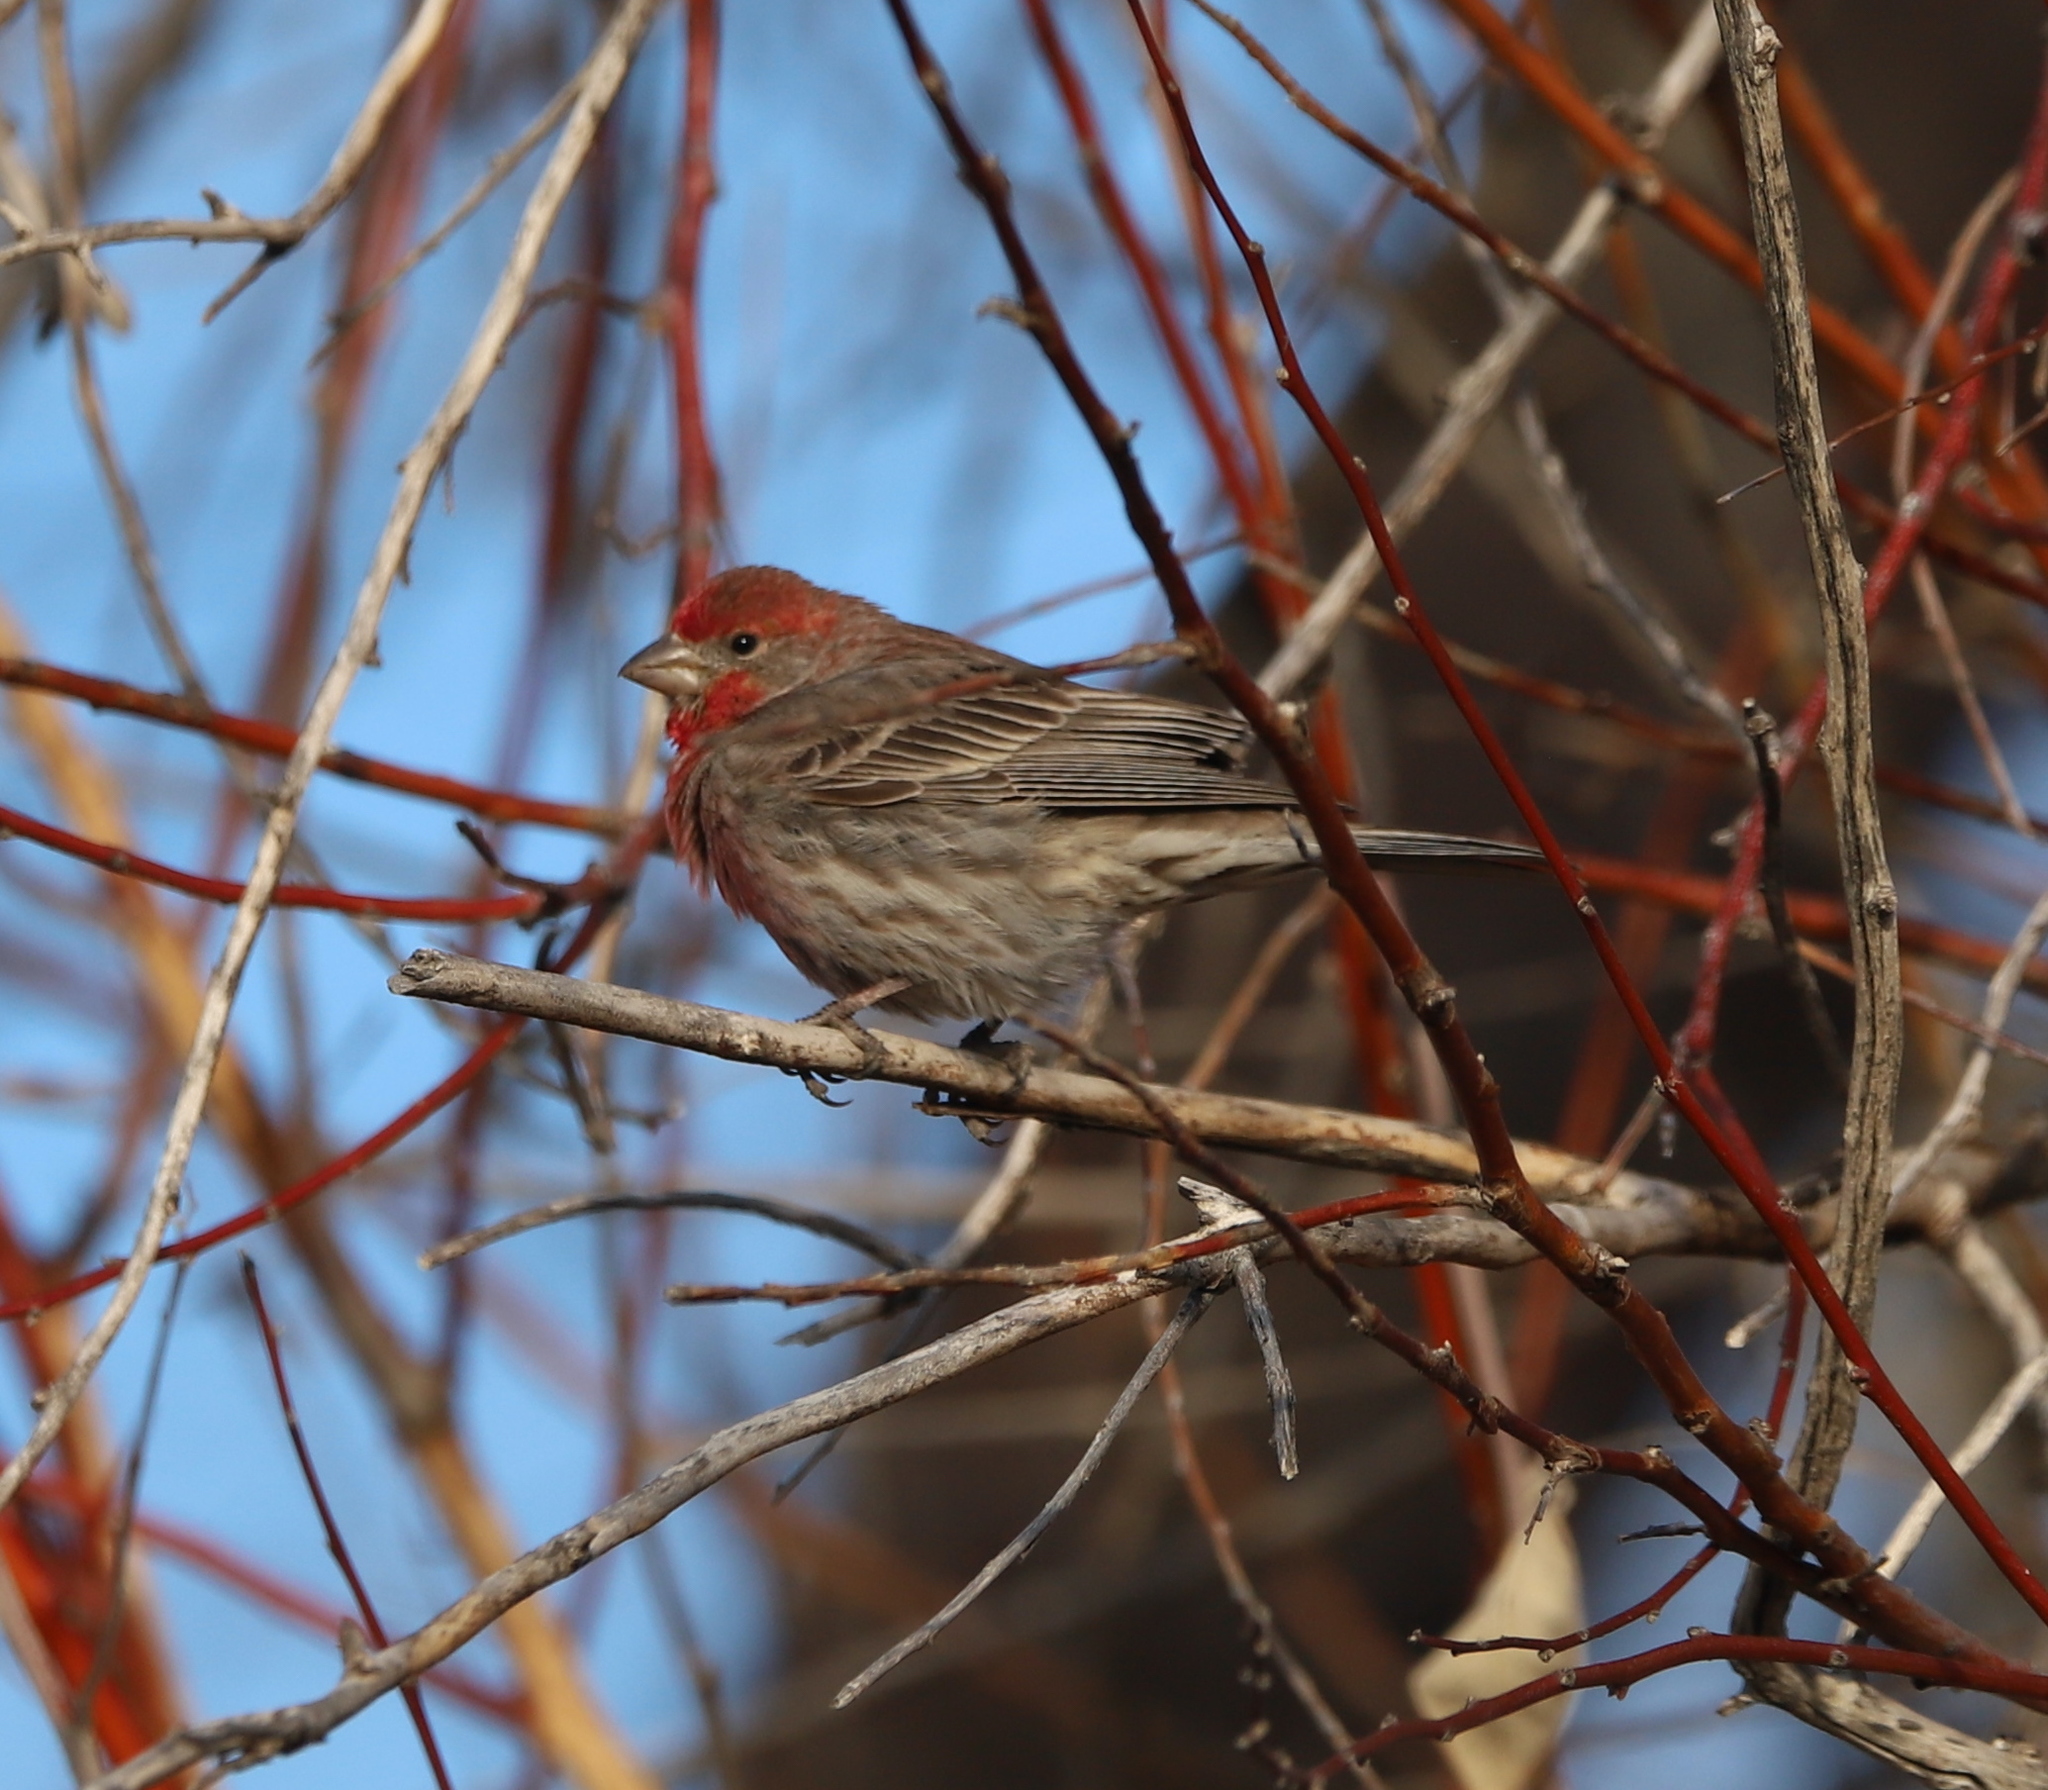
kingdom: Animalia
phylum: Chordata
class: Aves
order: Passeriformes
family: Fringillidae
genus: Haemorhous
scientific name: Haemorhous mexicanus
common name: House finch
